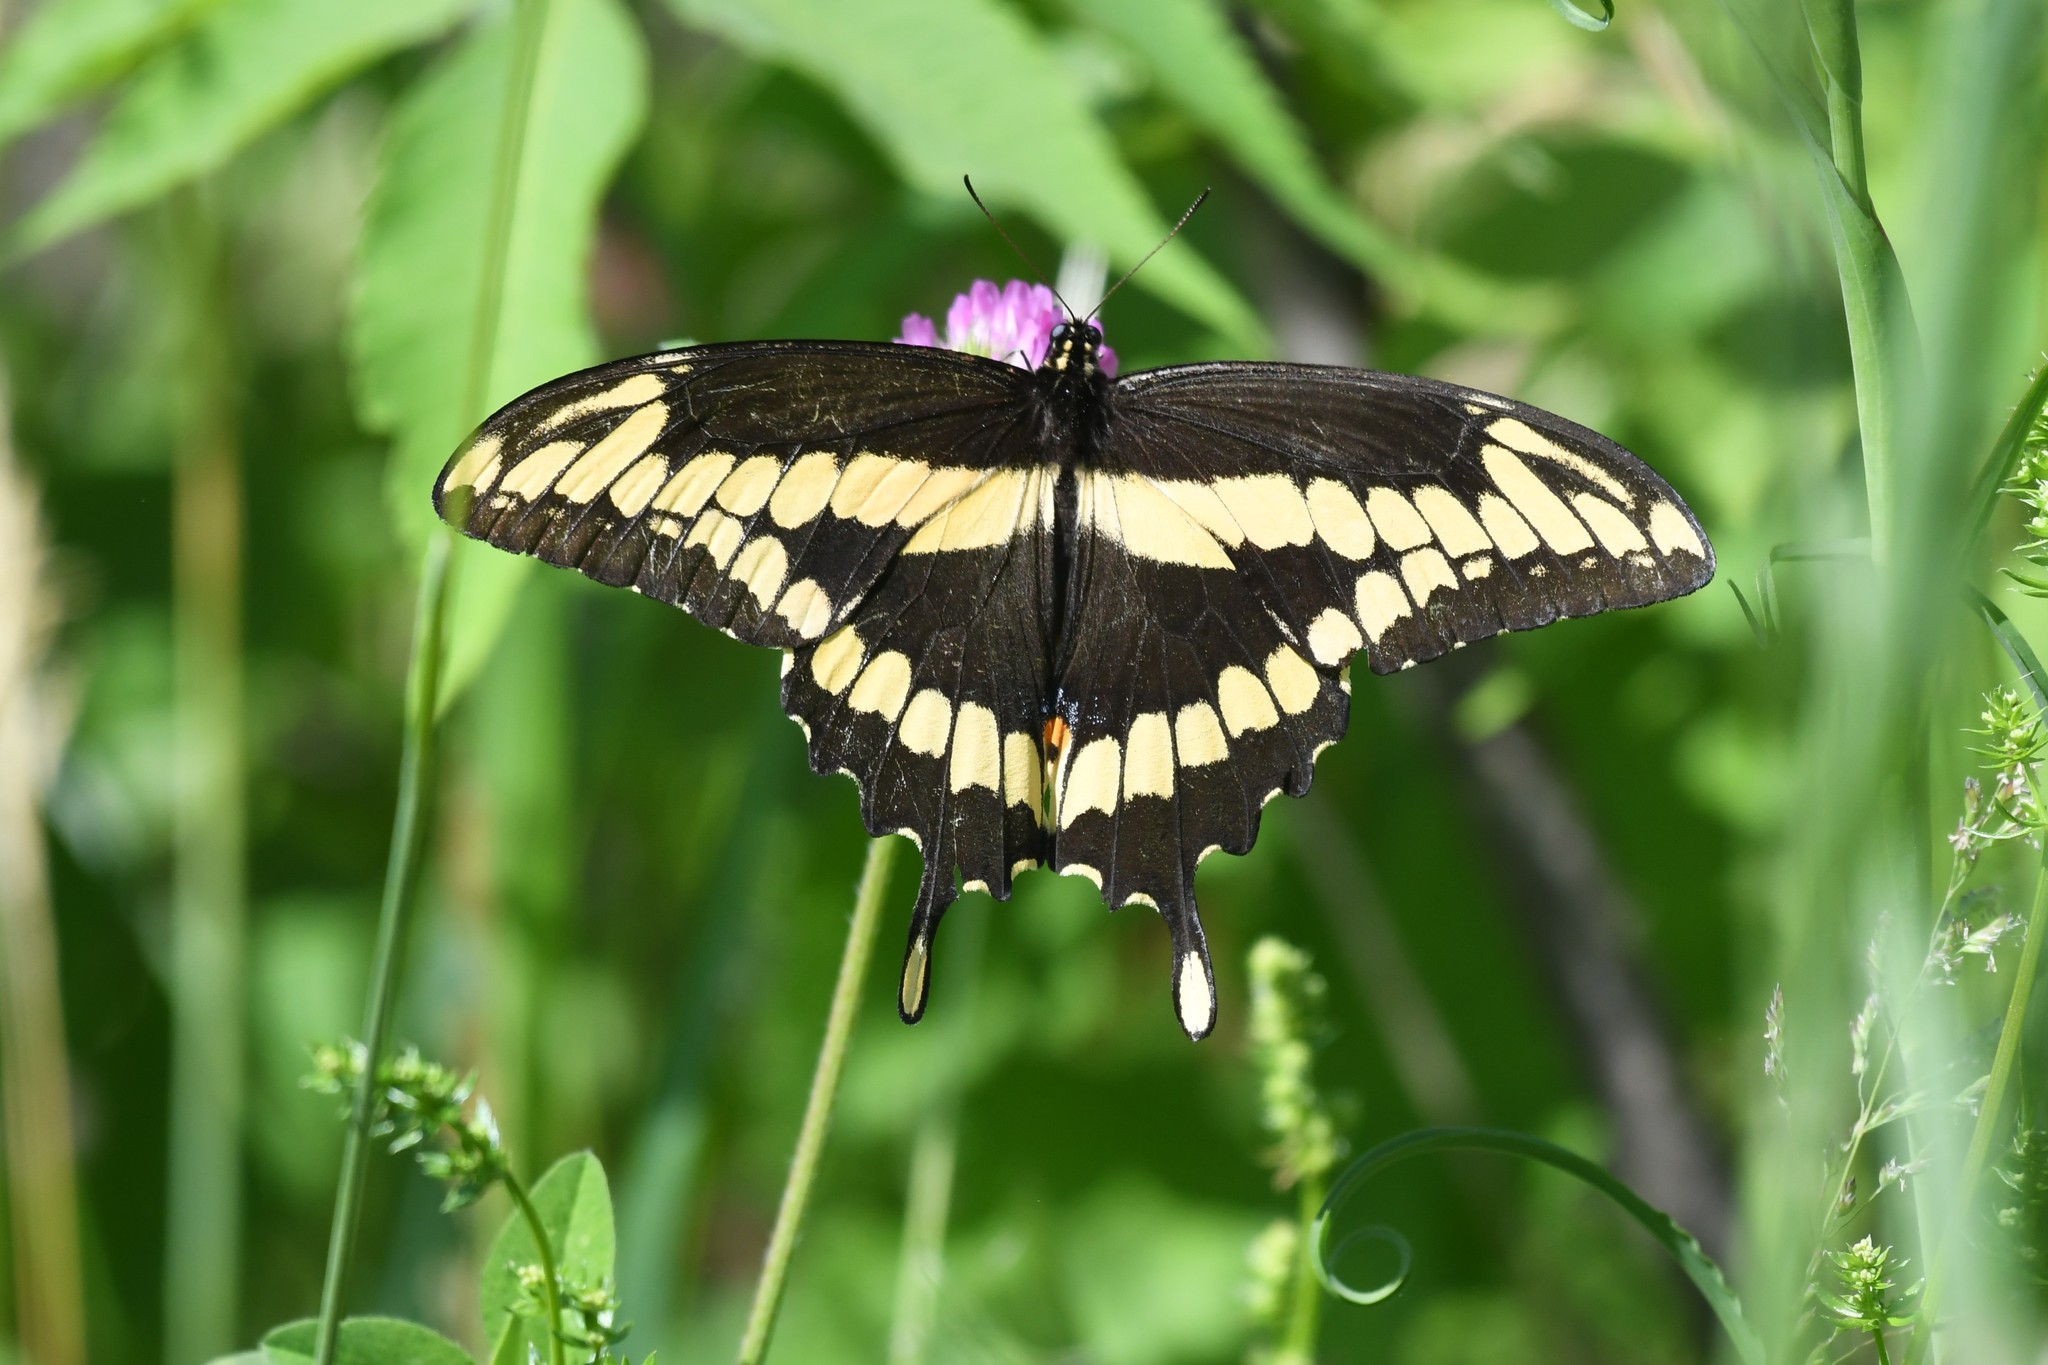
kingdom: Animalia
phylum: Arthropoda
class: Insecta
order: Lepidoptera
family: Papilionidae
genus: Papilio
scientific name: Papilio cresphontes
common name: Giant swallowtail
